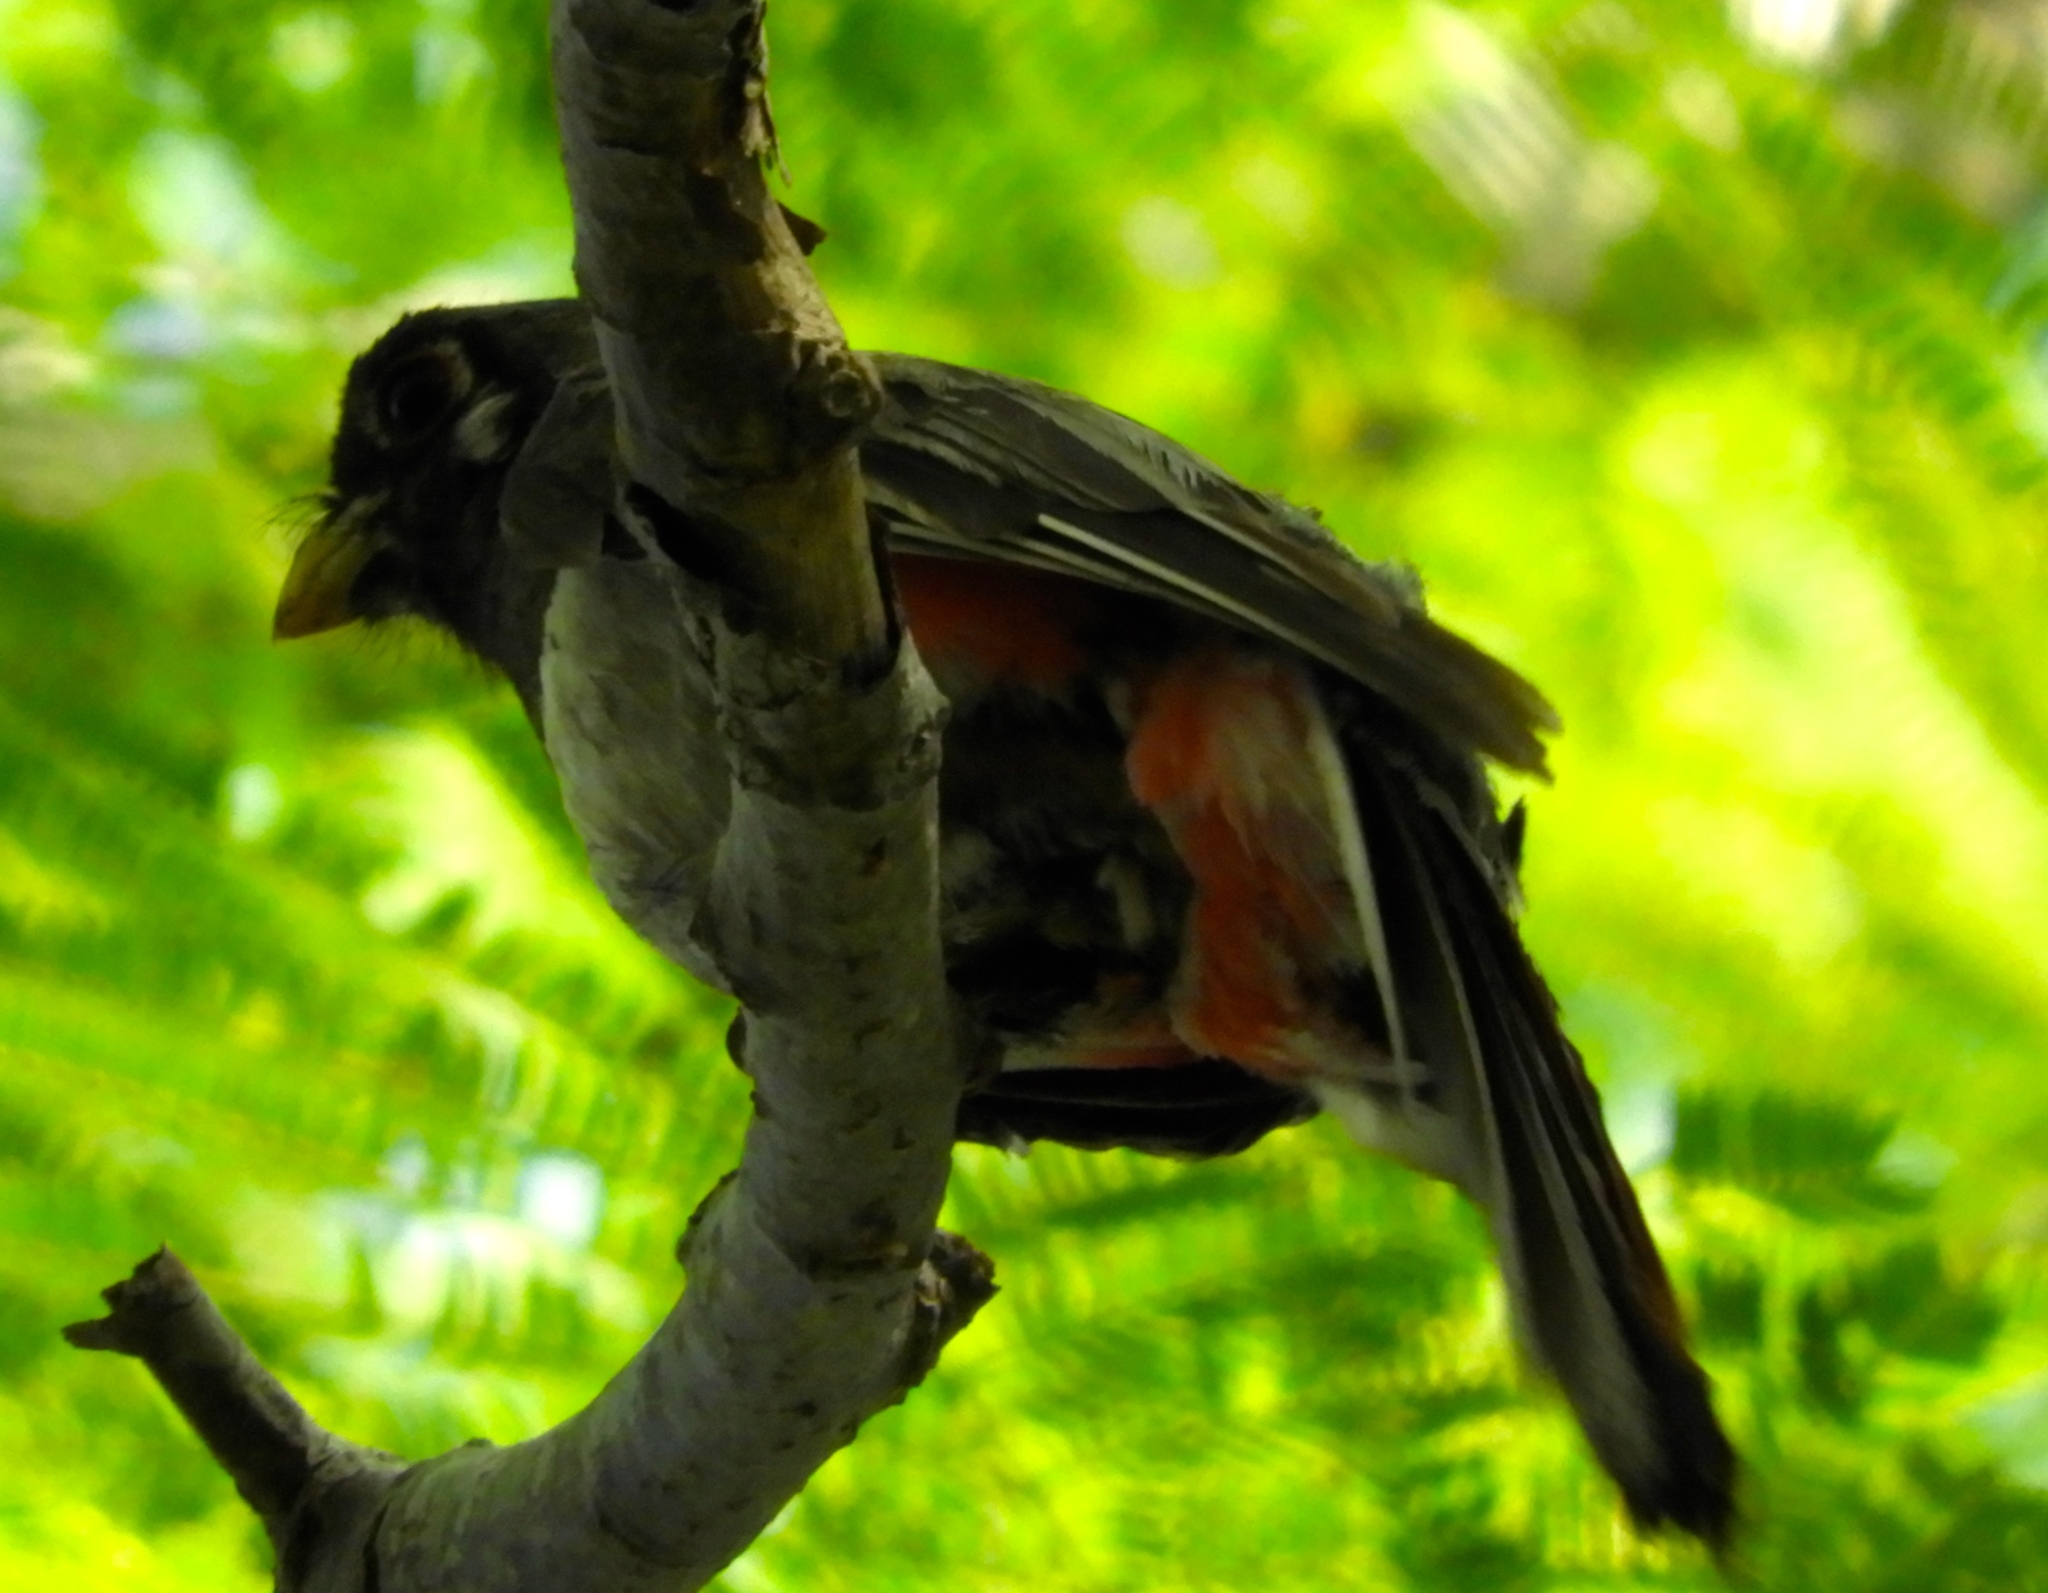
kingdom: Animalia
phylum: Chordata
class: Aves
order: Trogoniformes
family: Trogonidae
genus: Trogon
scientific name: Trogon elegans
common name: Elegant trogon
